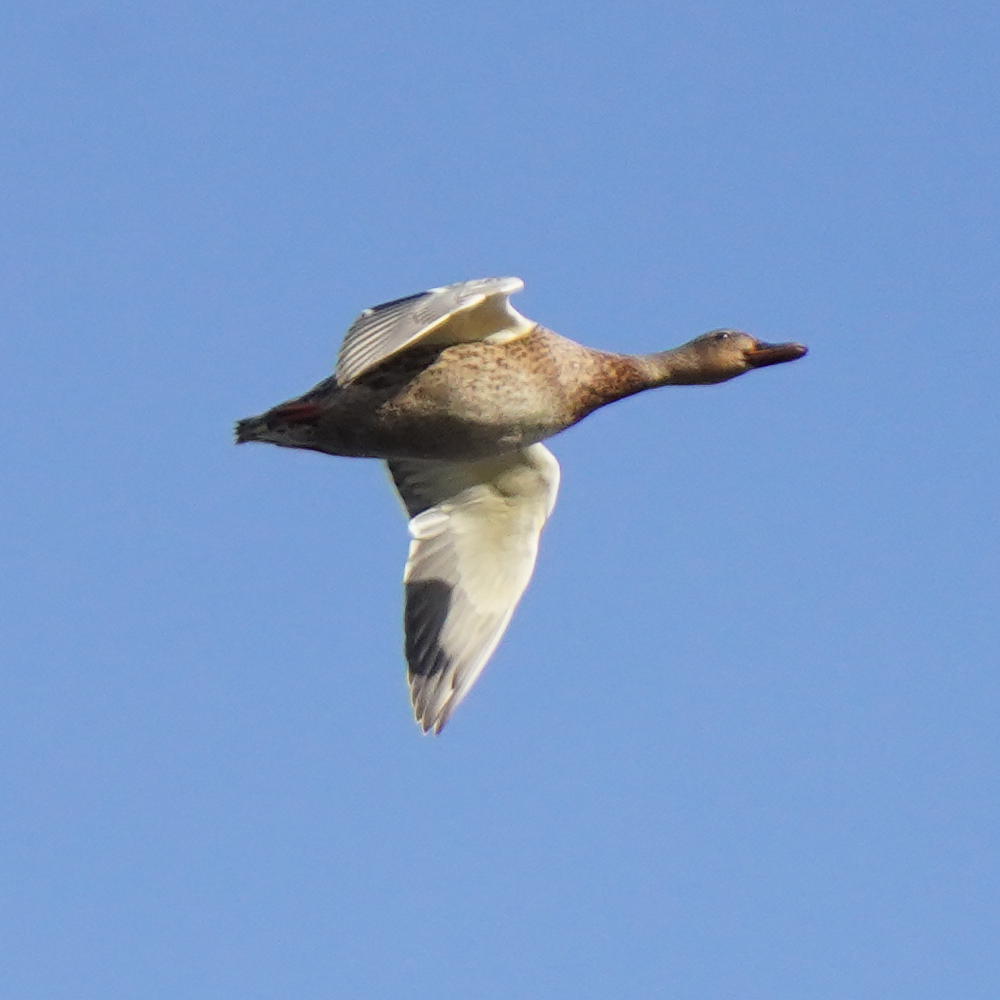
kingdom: Animalia
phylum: Chordata
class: Aves
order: Anseriformes
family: Anatidae
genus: Anas
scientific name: Anas platyrhynchos
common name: Mallard
